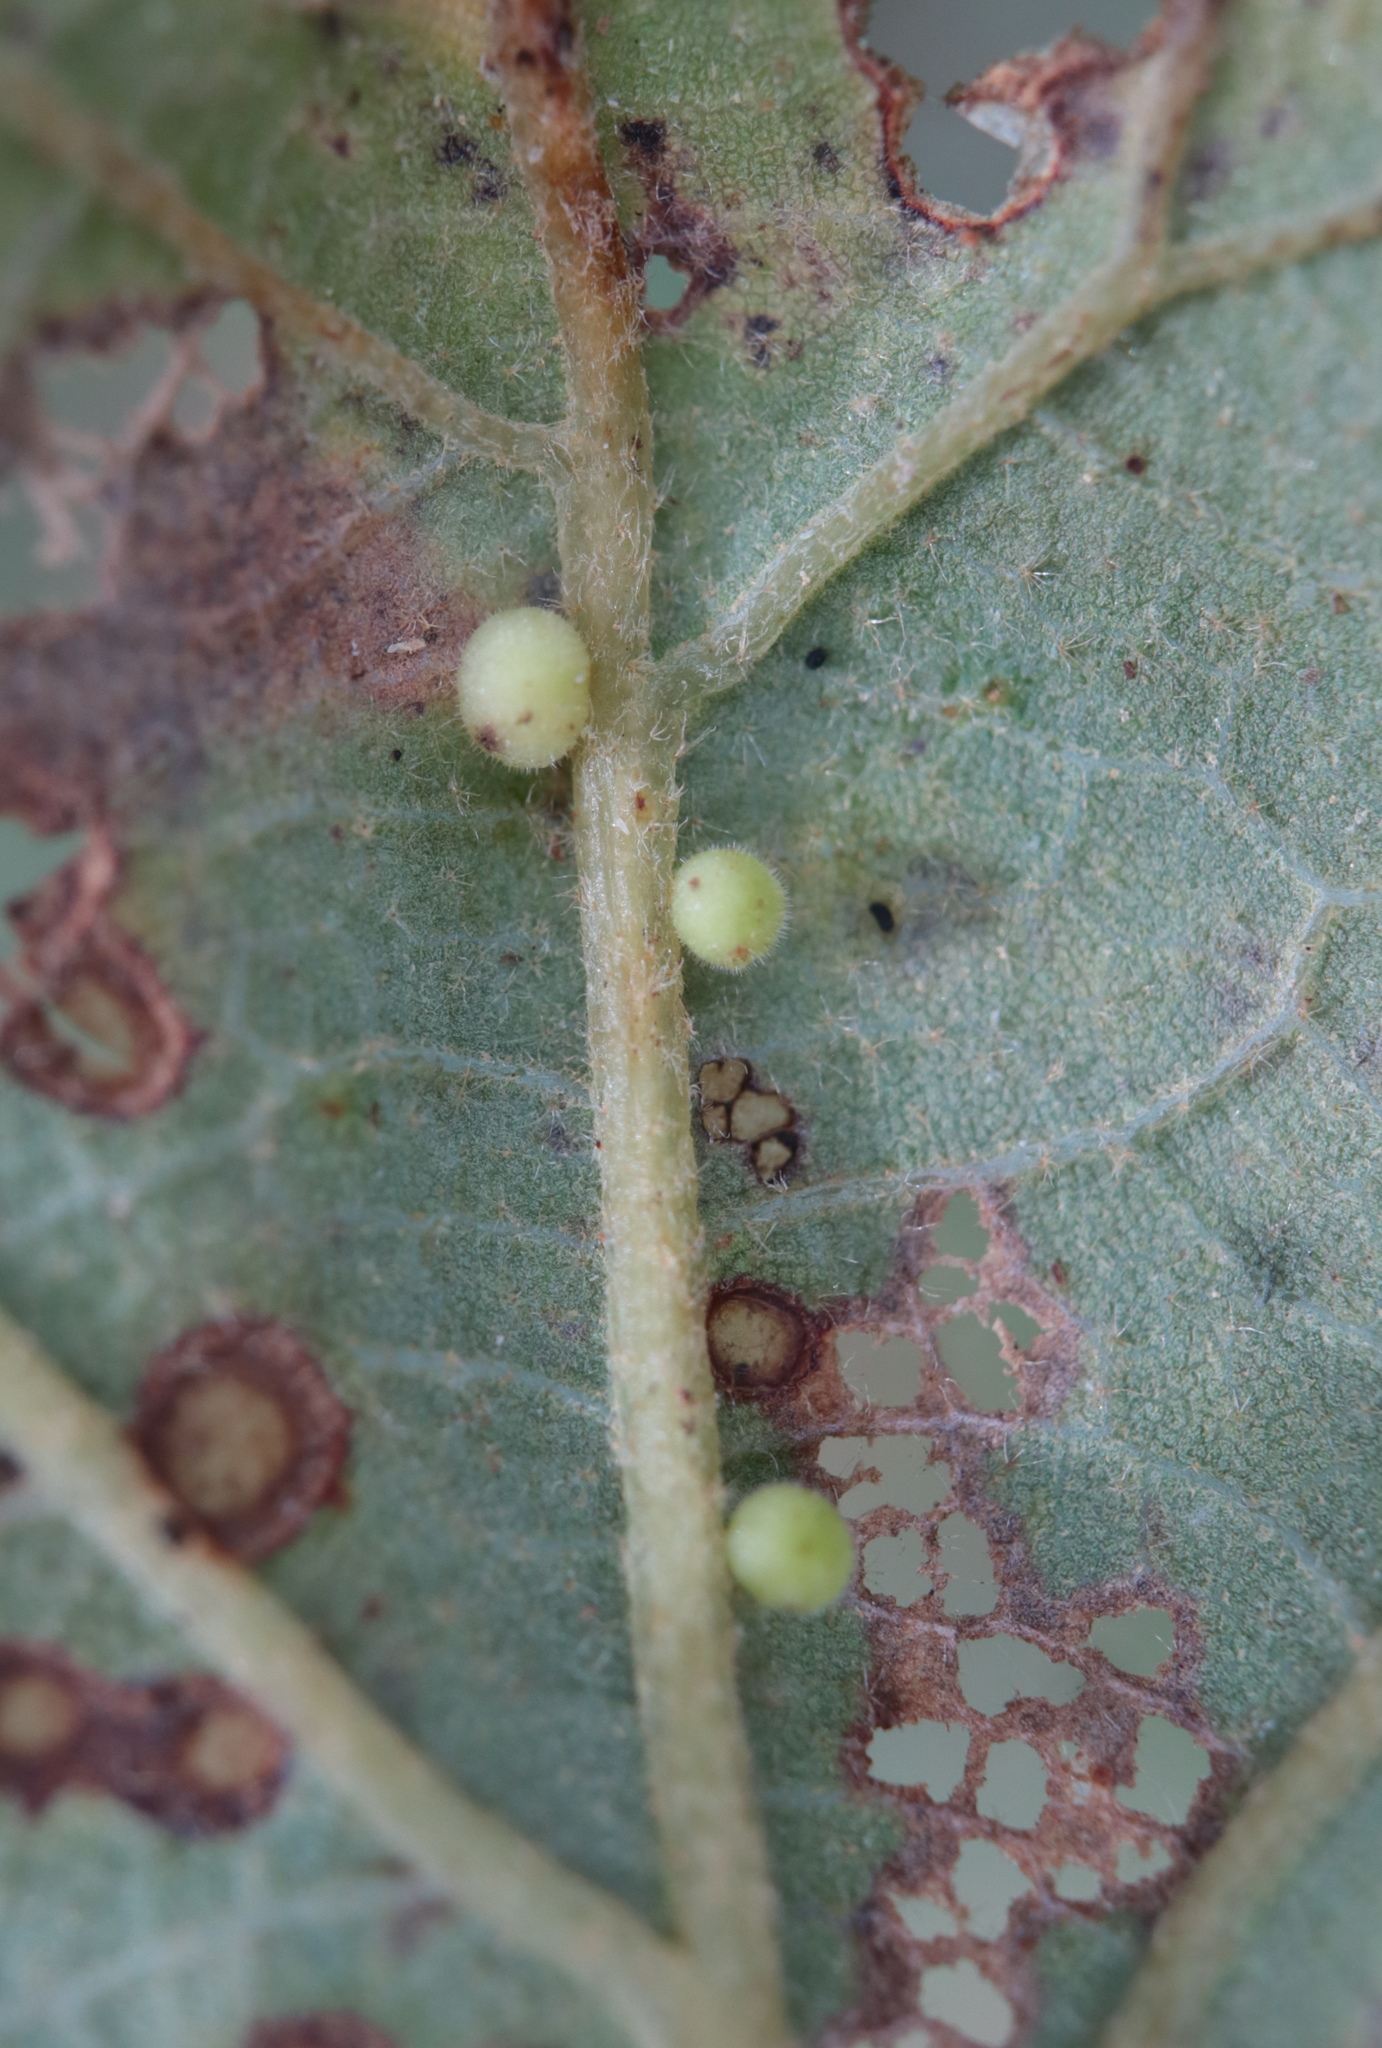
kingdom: Animalia
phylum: Arthropoda
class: Insecta
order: Hymenoptera
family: Cynipidae
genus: Neuroterus
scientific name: Neuroterus saltarius
